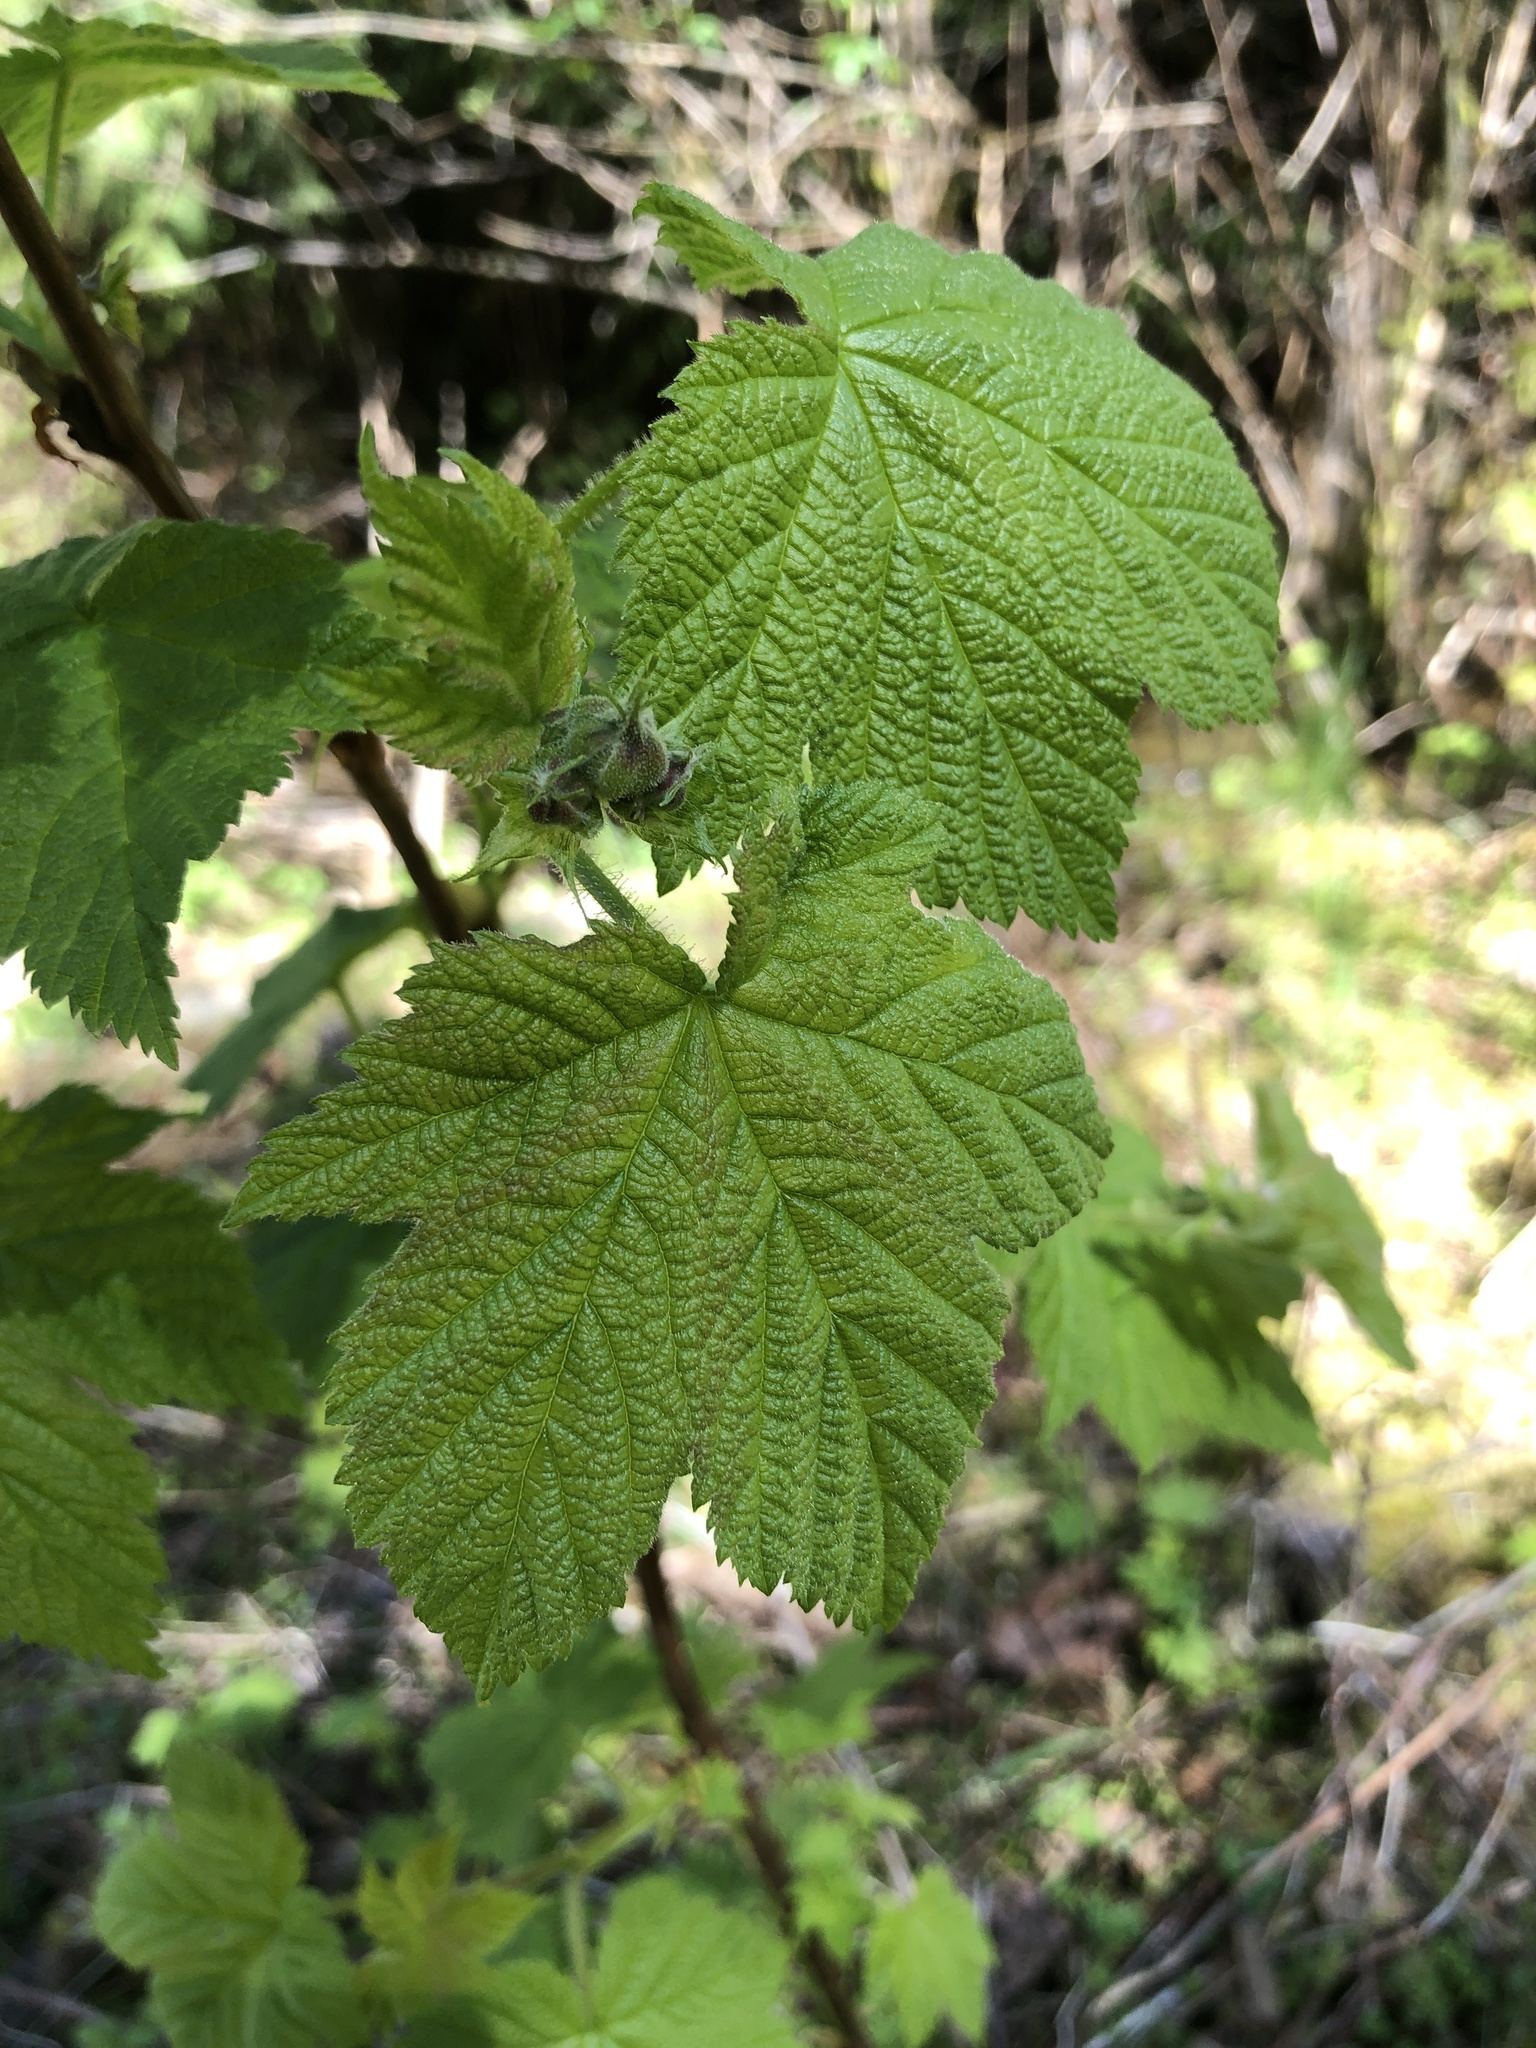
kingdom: Plantae
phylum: Tracheophyta
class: Magnoliopsida
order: Rosales
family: Rosaceae
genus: Rubus
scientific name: Rubus parviflorus
